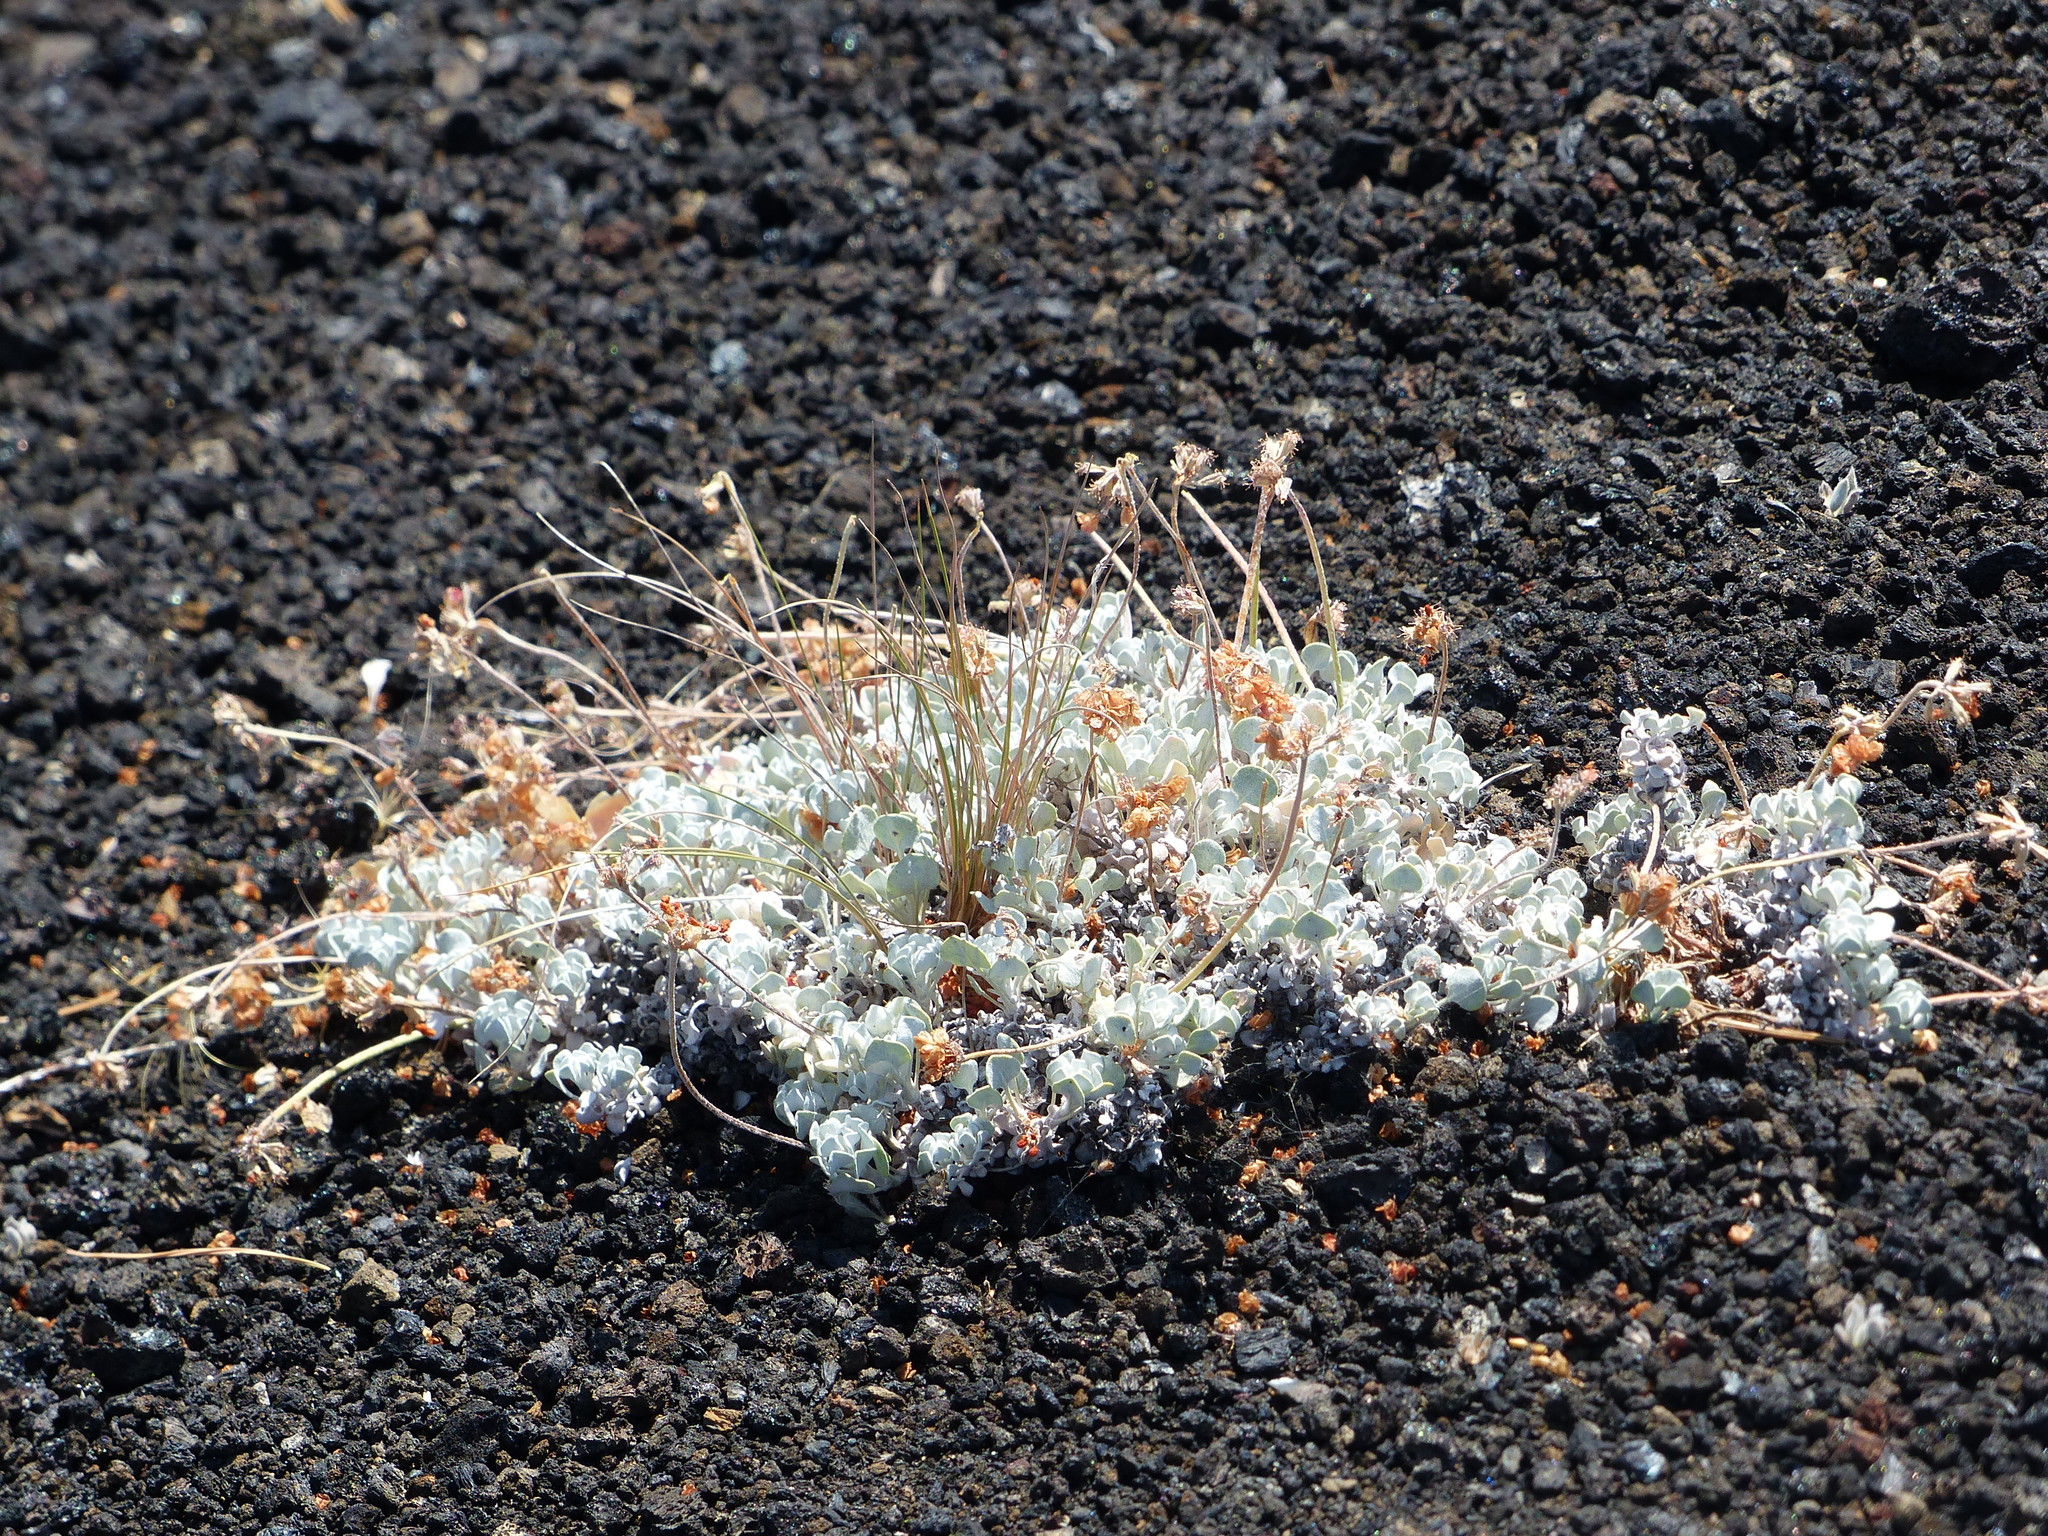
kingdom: Plantae
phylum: Tracheophyta
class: Magnoliopsida
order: Caryophyllales
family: Polygonaceae
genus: Eriogonum
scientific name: Eriogonum ovalifolium
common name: Cushion buckwheat
